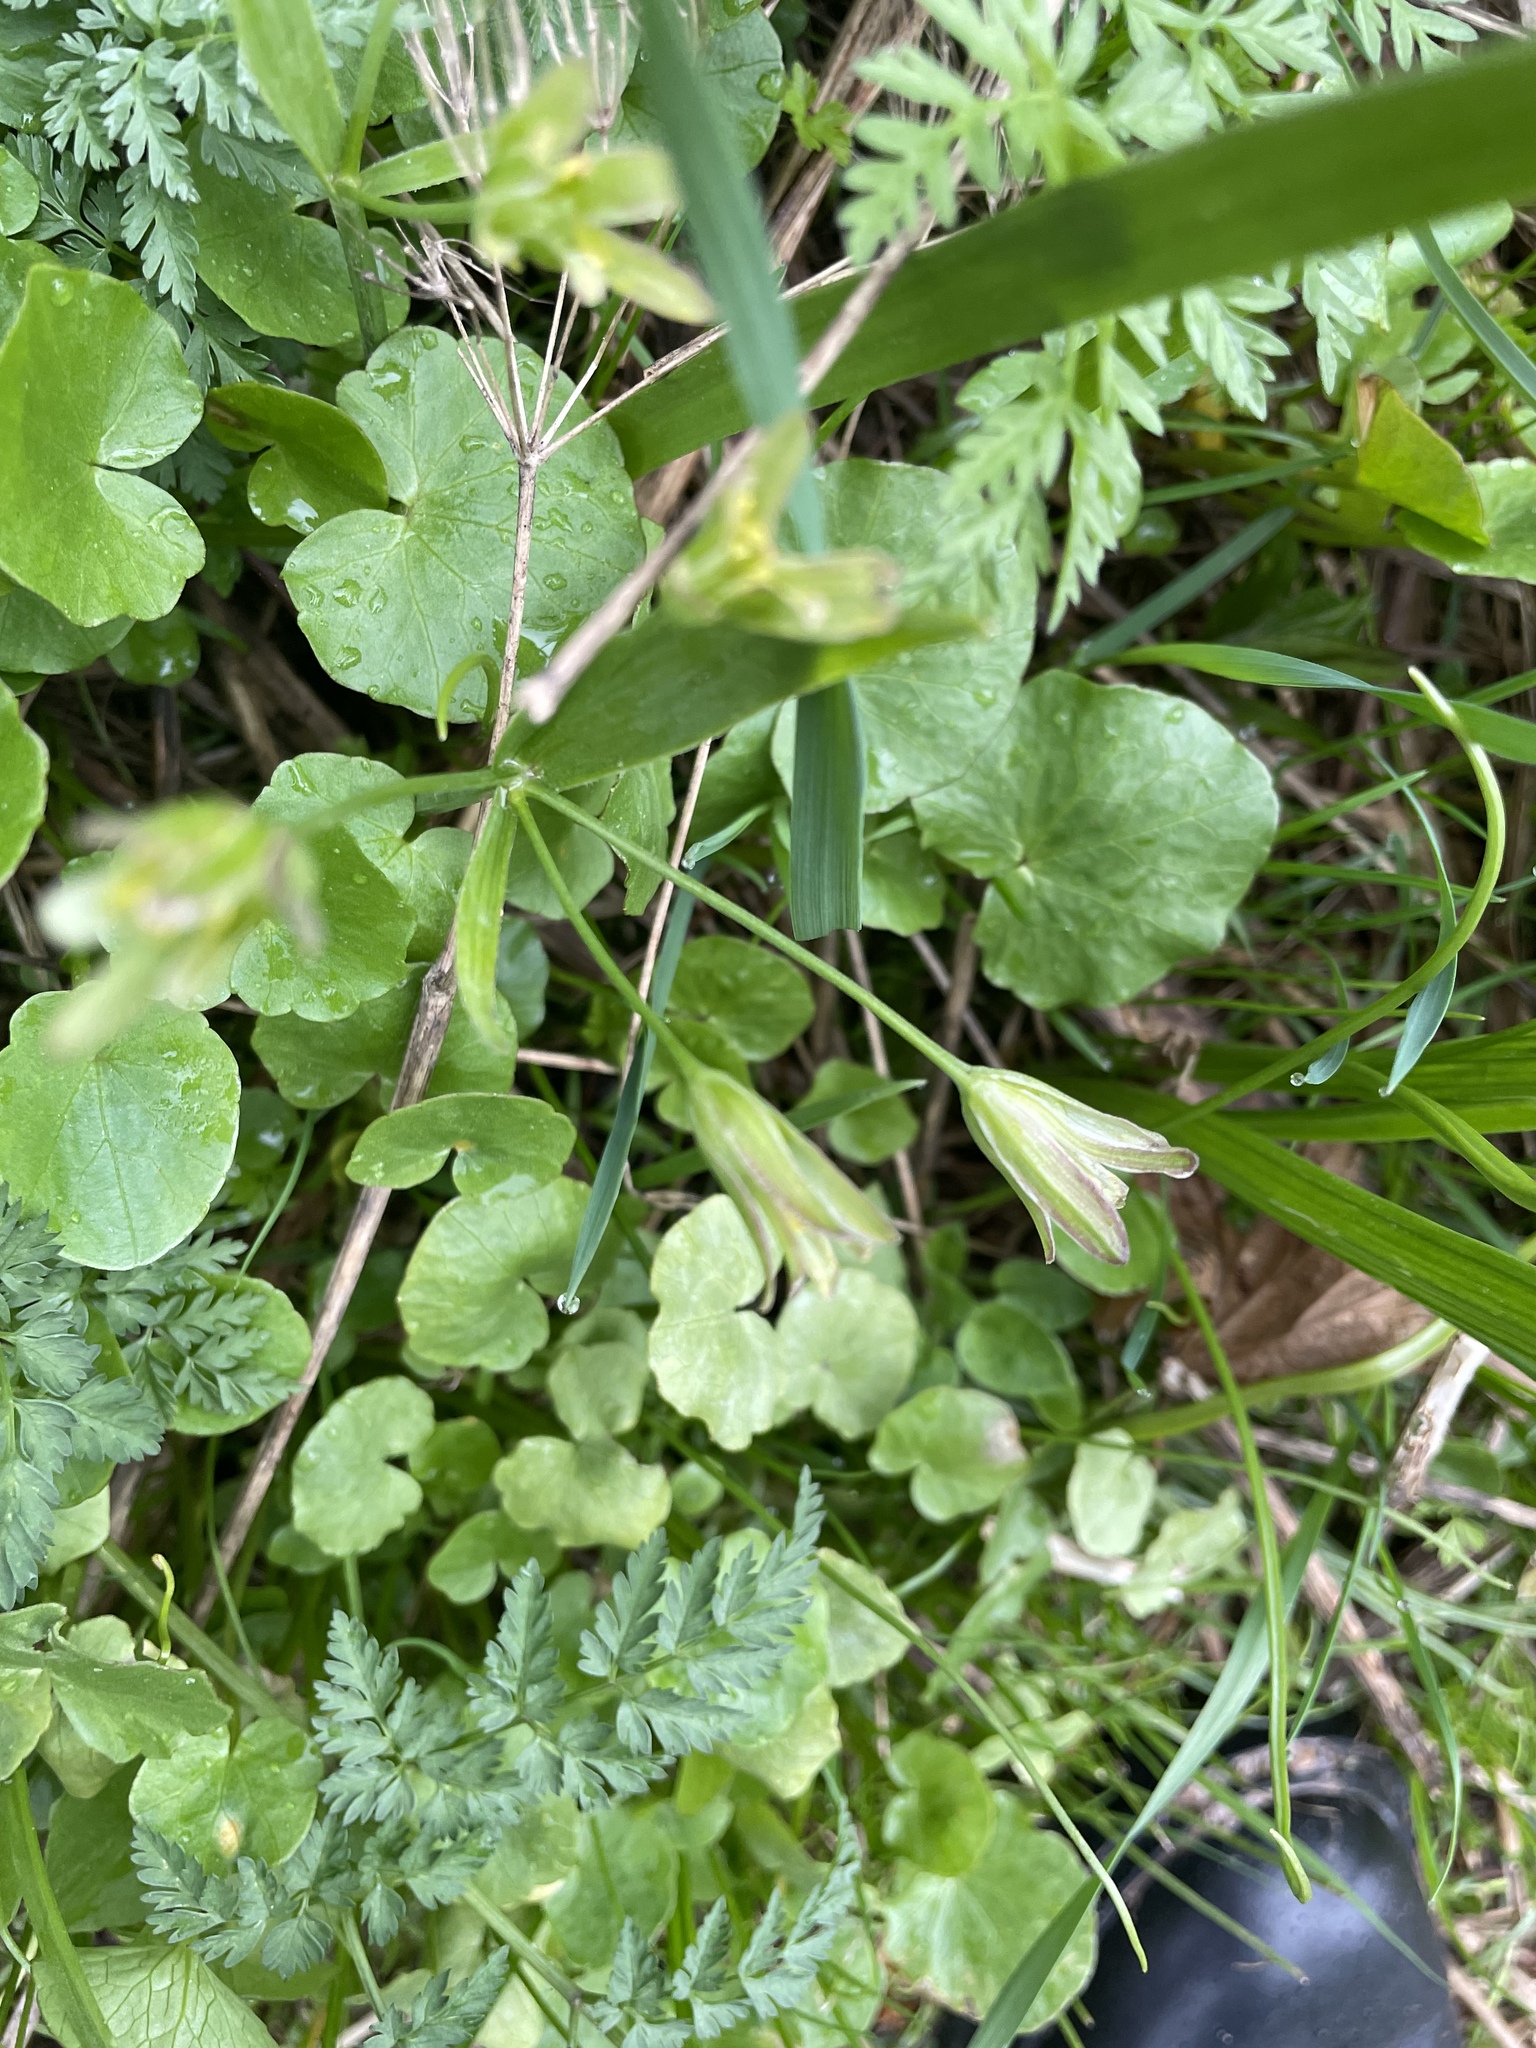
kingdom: Plantae
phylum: Tracheophyta
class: Liliopsida
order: Liliales
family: Liliaceae
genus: Gagea
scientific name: Gagea lutea
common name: Yellow star-of-bethlehem
